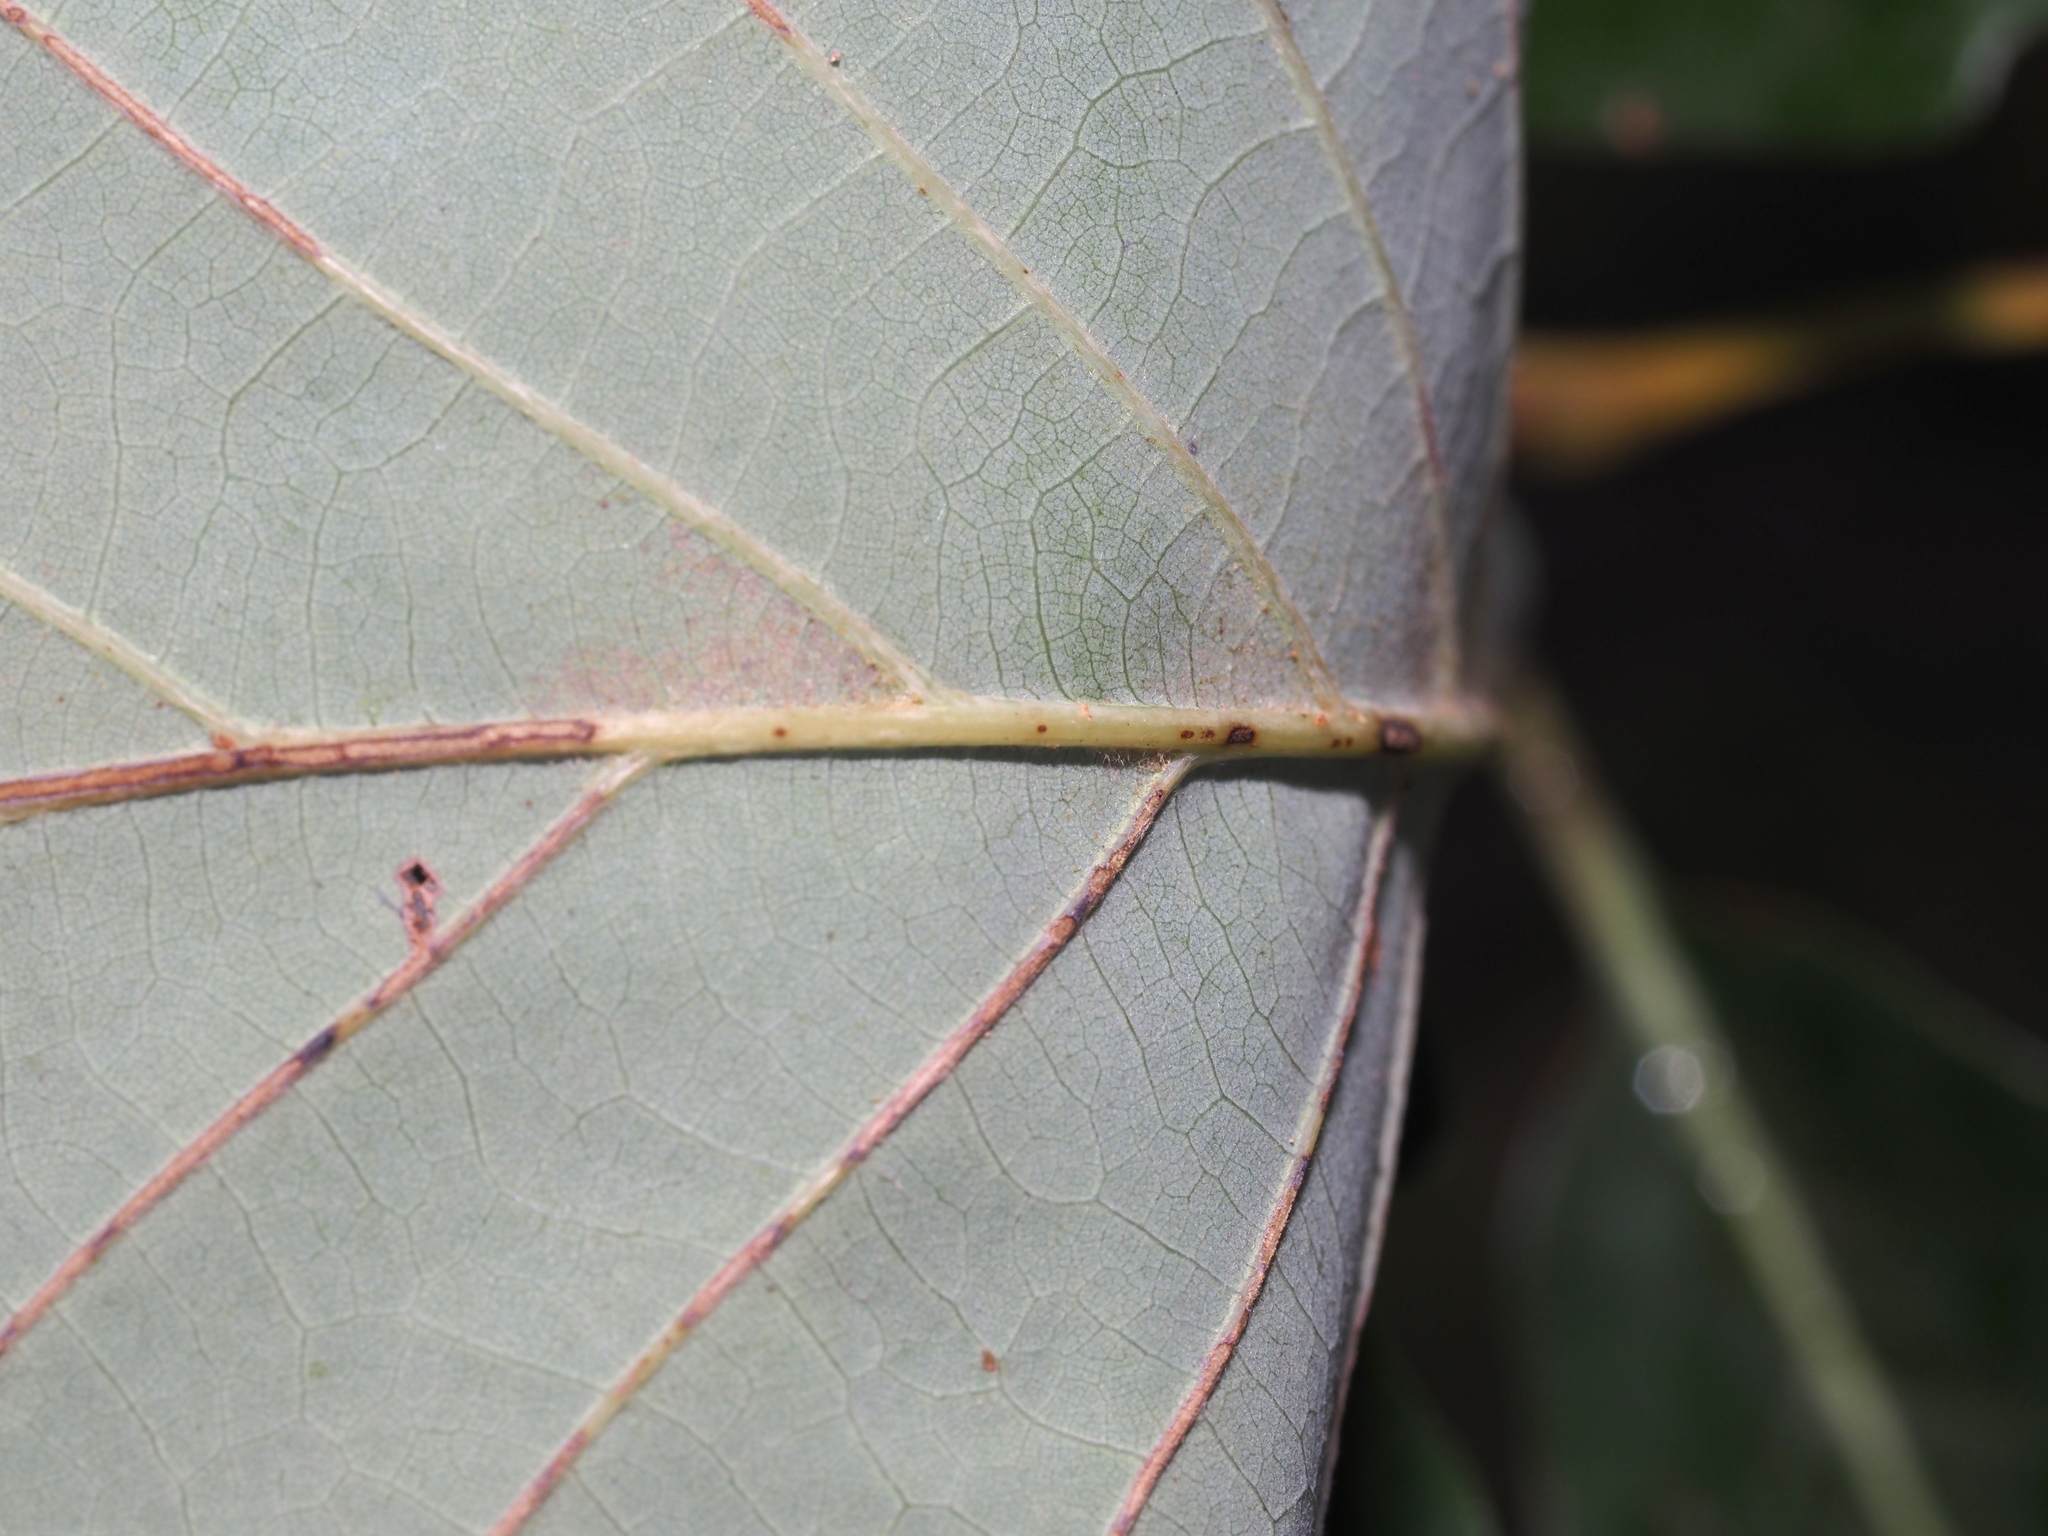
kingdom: Plantae
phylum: Tracheophyta
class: Magnoliopsida
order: Fagales
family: Fagaceae
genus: Quercus
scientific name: Quercus montana
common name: Chestnut oak
